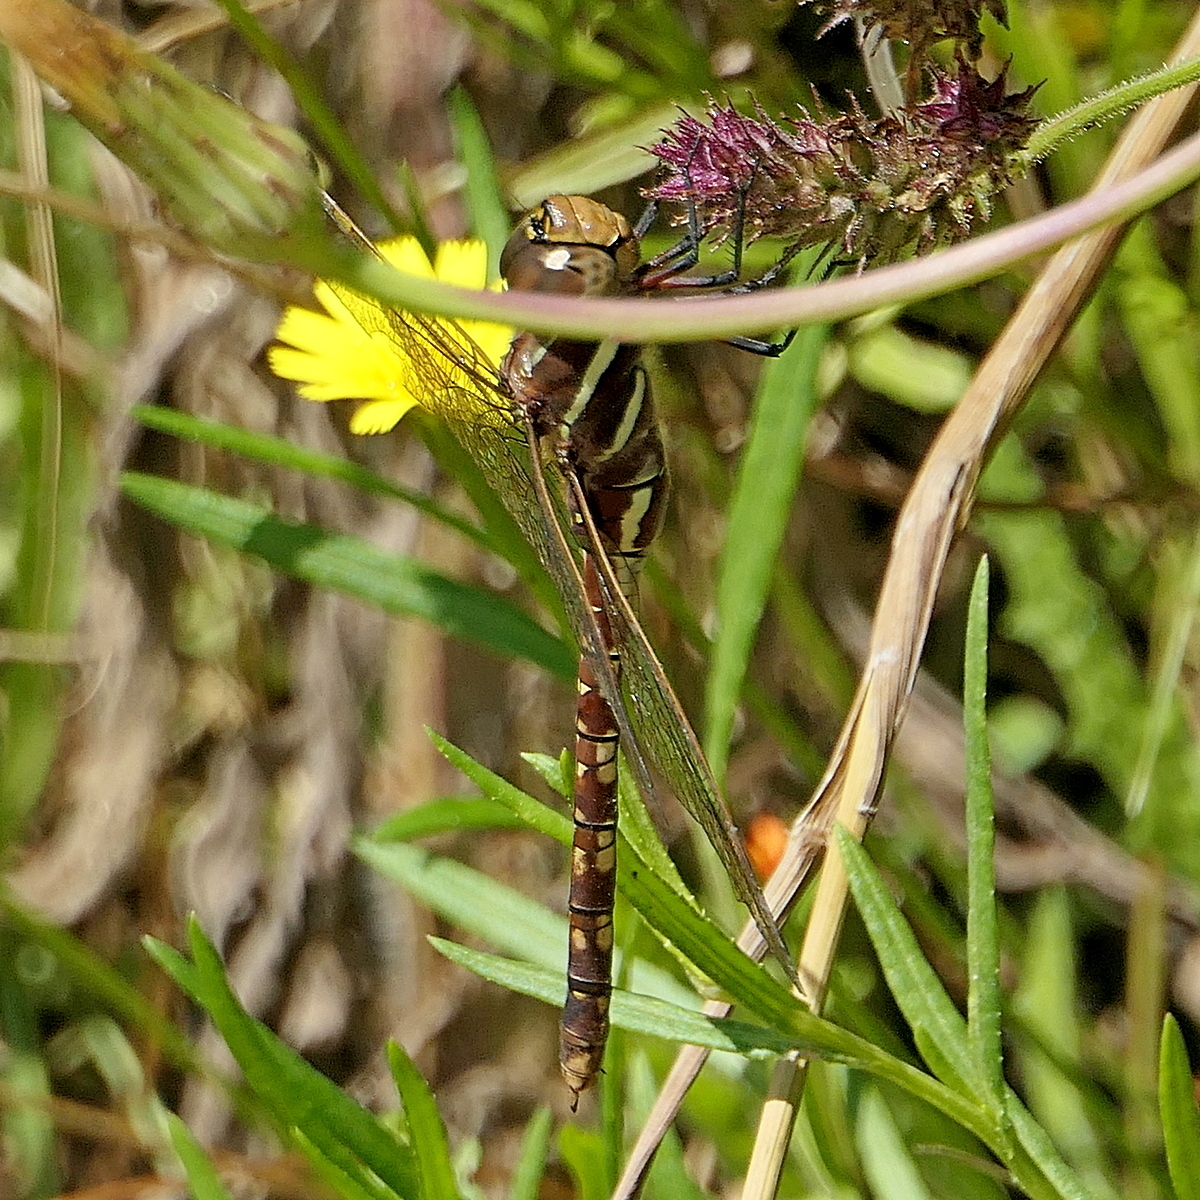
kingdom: Animalia
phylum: Arthropoda
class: Insecta
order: Odonata
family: Aeshnidae
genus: Aeshna
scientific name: Aeshna brevistyla
